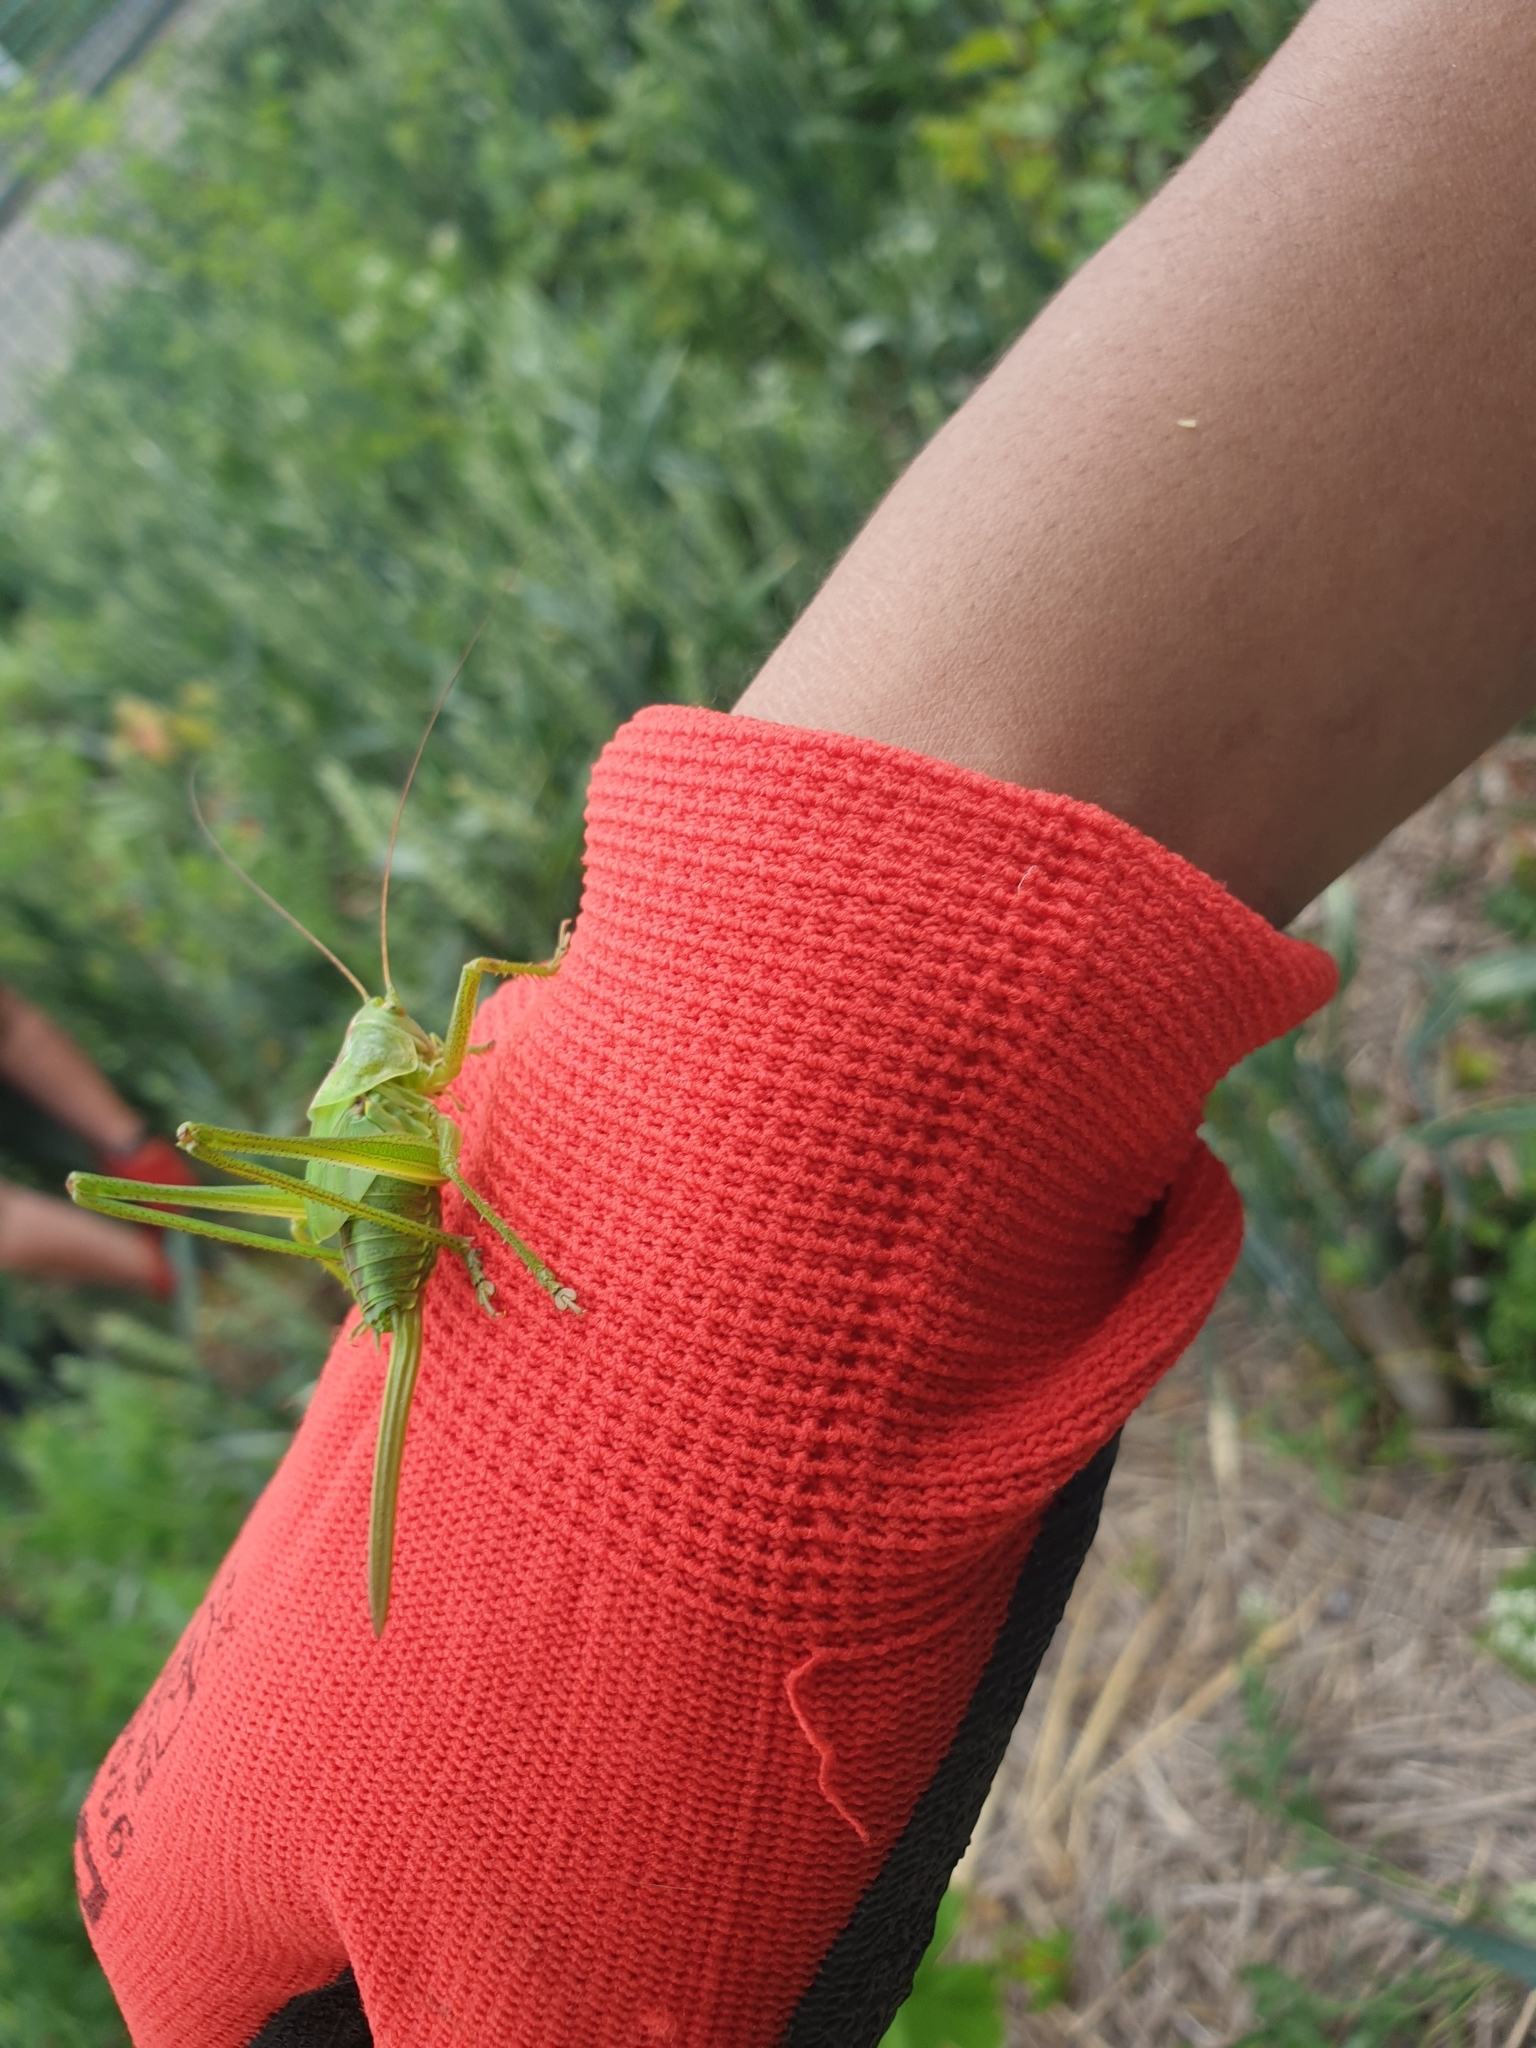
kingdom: Animalia
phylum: Arthropoda
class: Insecta
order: Orthoptera
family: Tettigoniidae
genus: Tettigonia
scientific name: Tettigonia viridissima
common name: Great green bush-cricket
